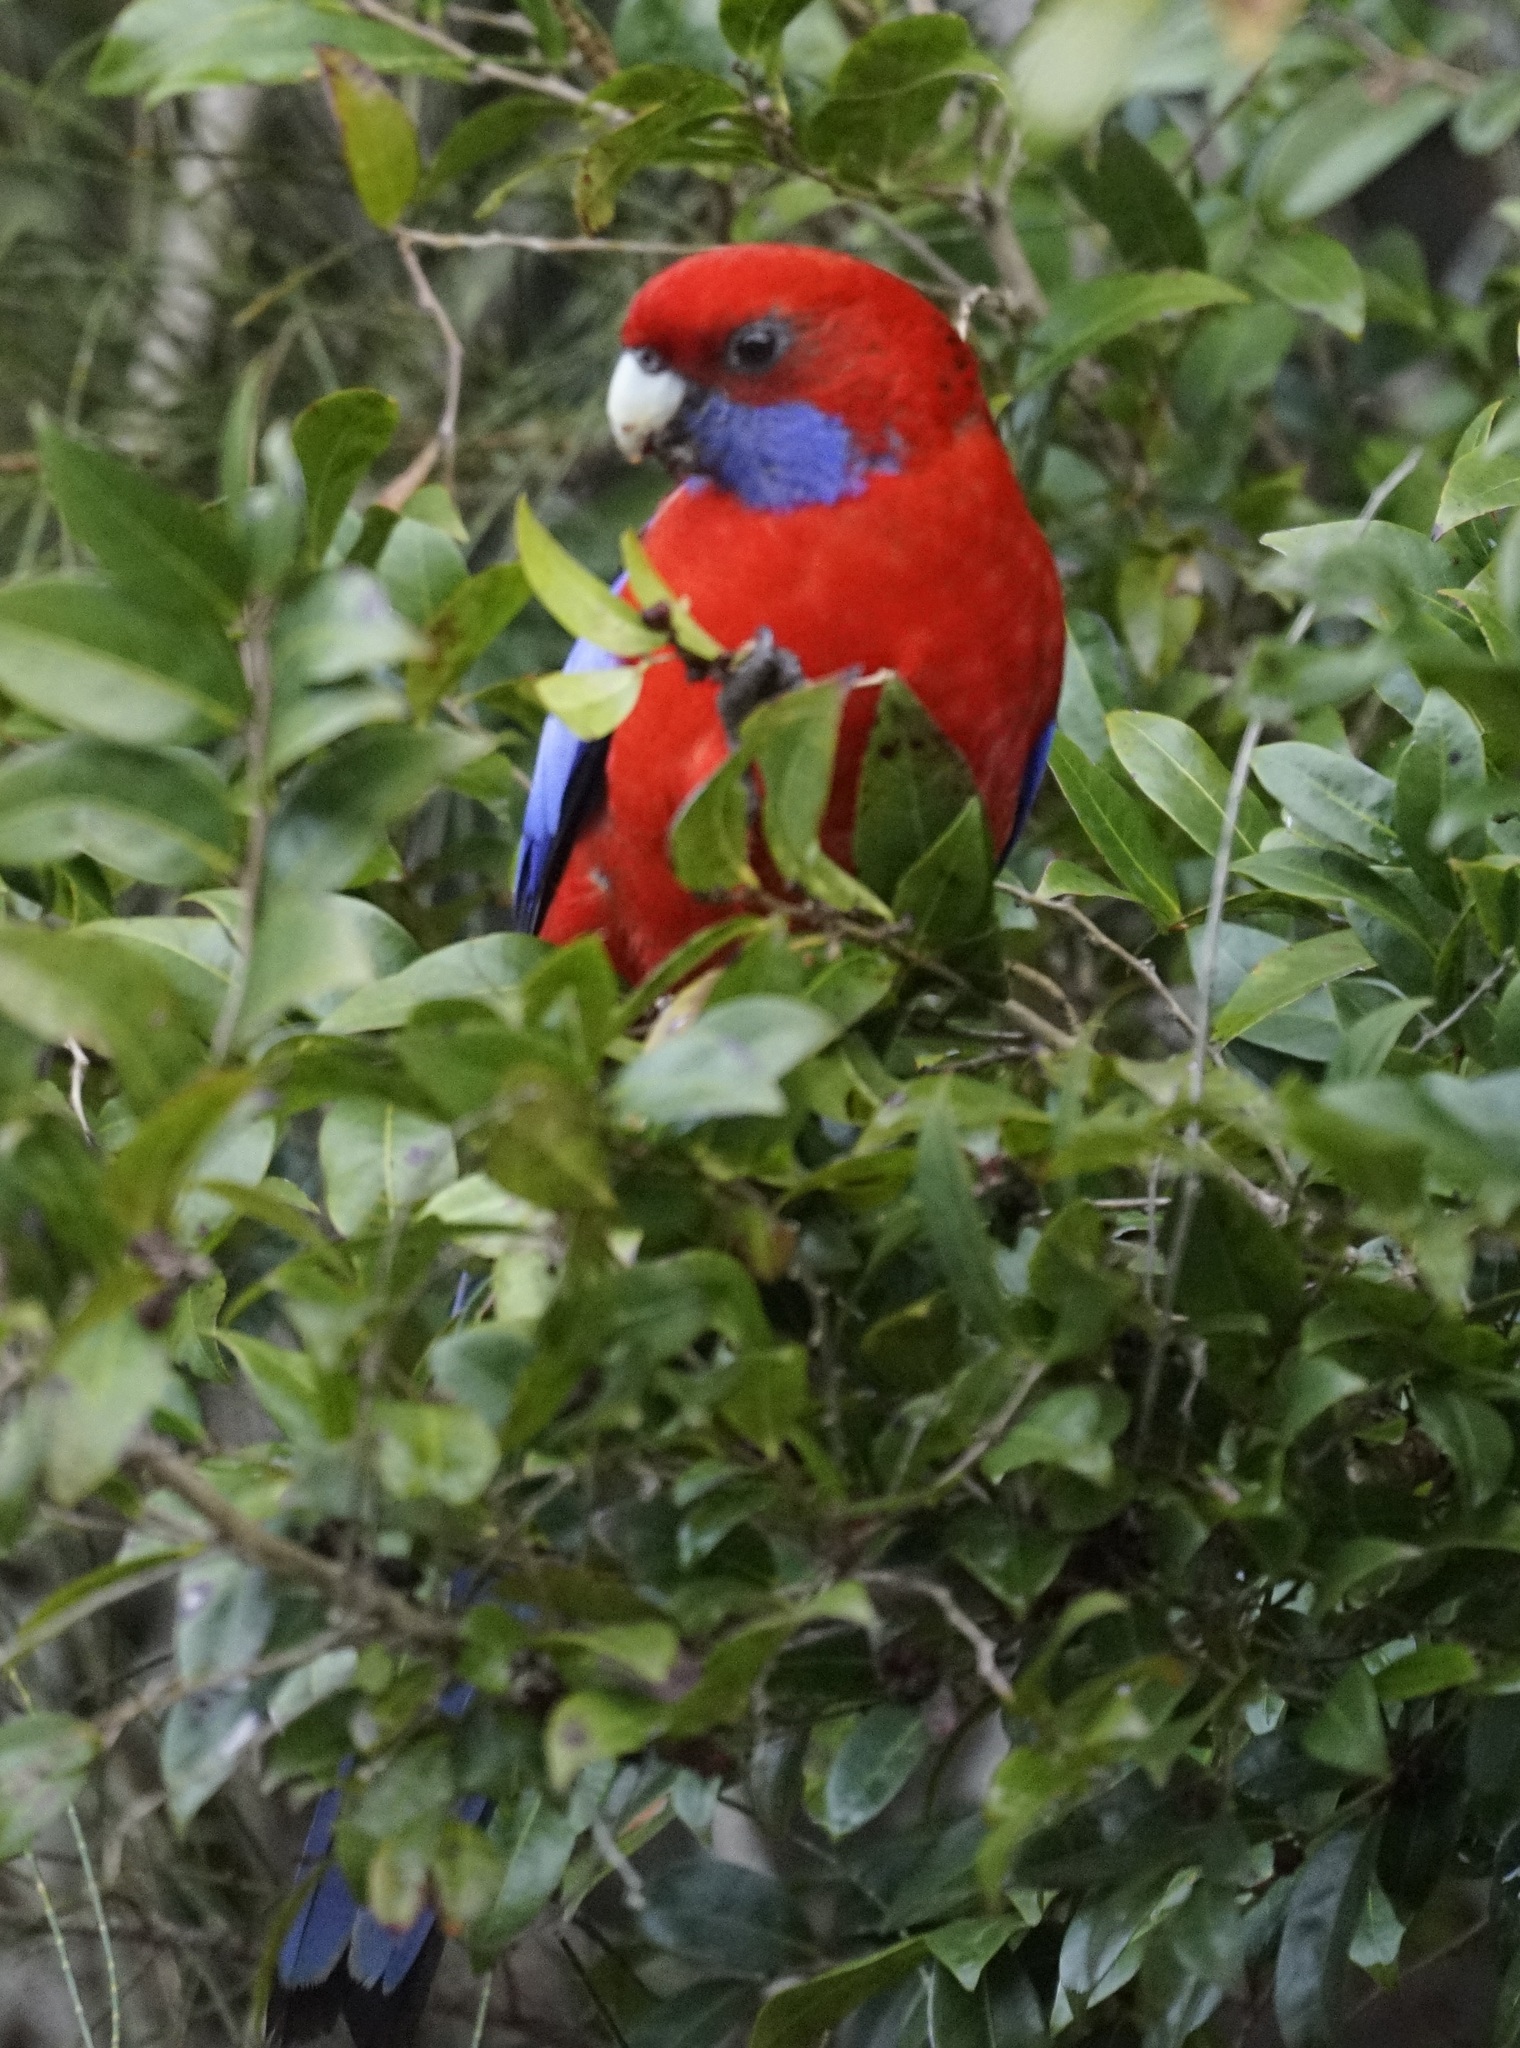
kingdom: Animalia
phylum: Chordata
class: Aves
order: Psittaciformes
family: Psittacidae
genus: Platycercus
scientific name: Platycercus elegans
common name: Crimson rosella
